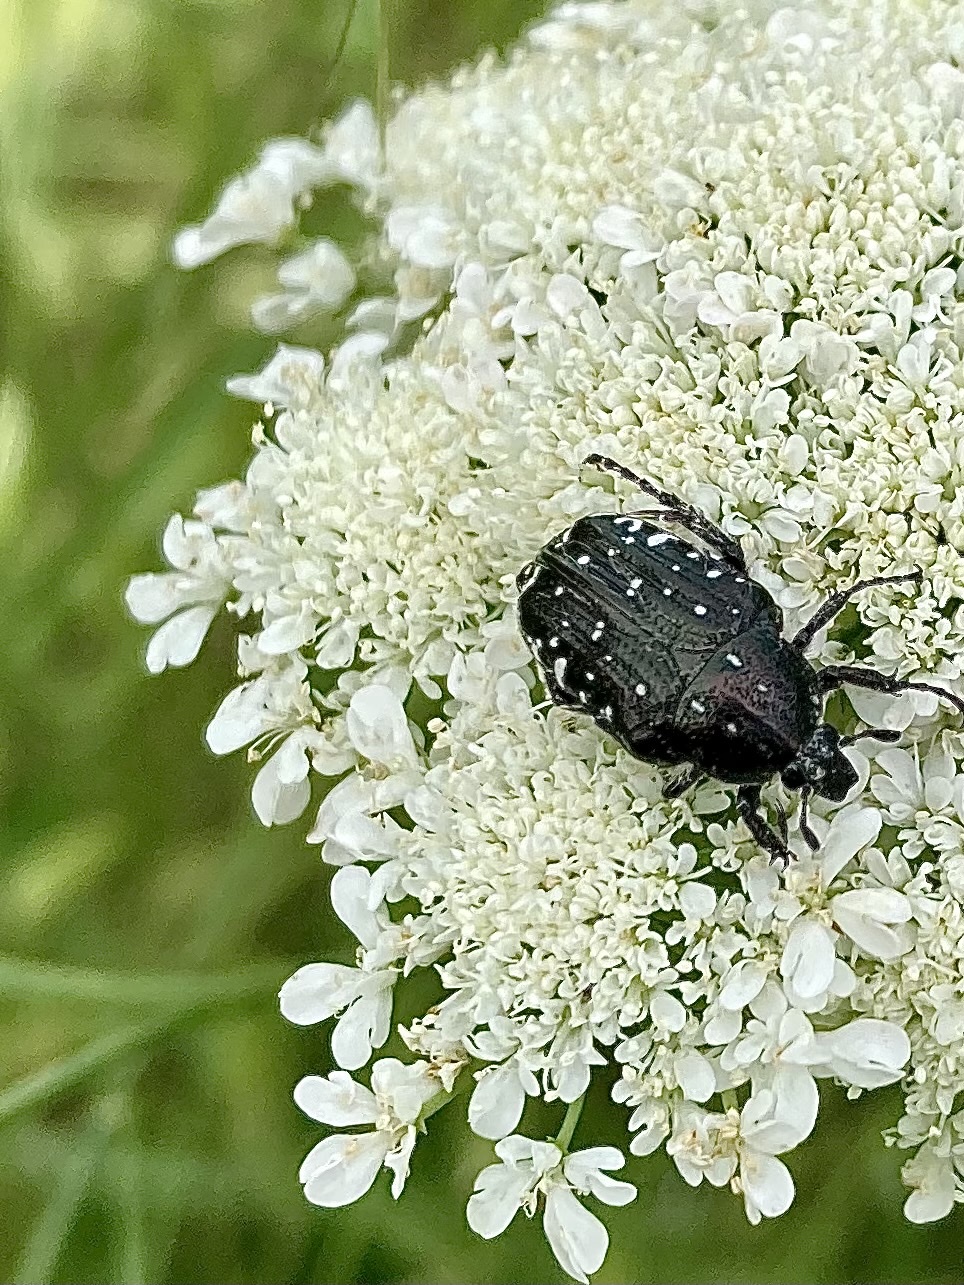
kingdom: Animalia
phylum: Arthropoda
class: Insecta
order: Coleoptera
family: Scarabaeidae
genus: Oxythyrea
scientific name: Oxythyrea funesta
